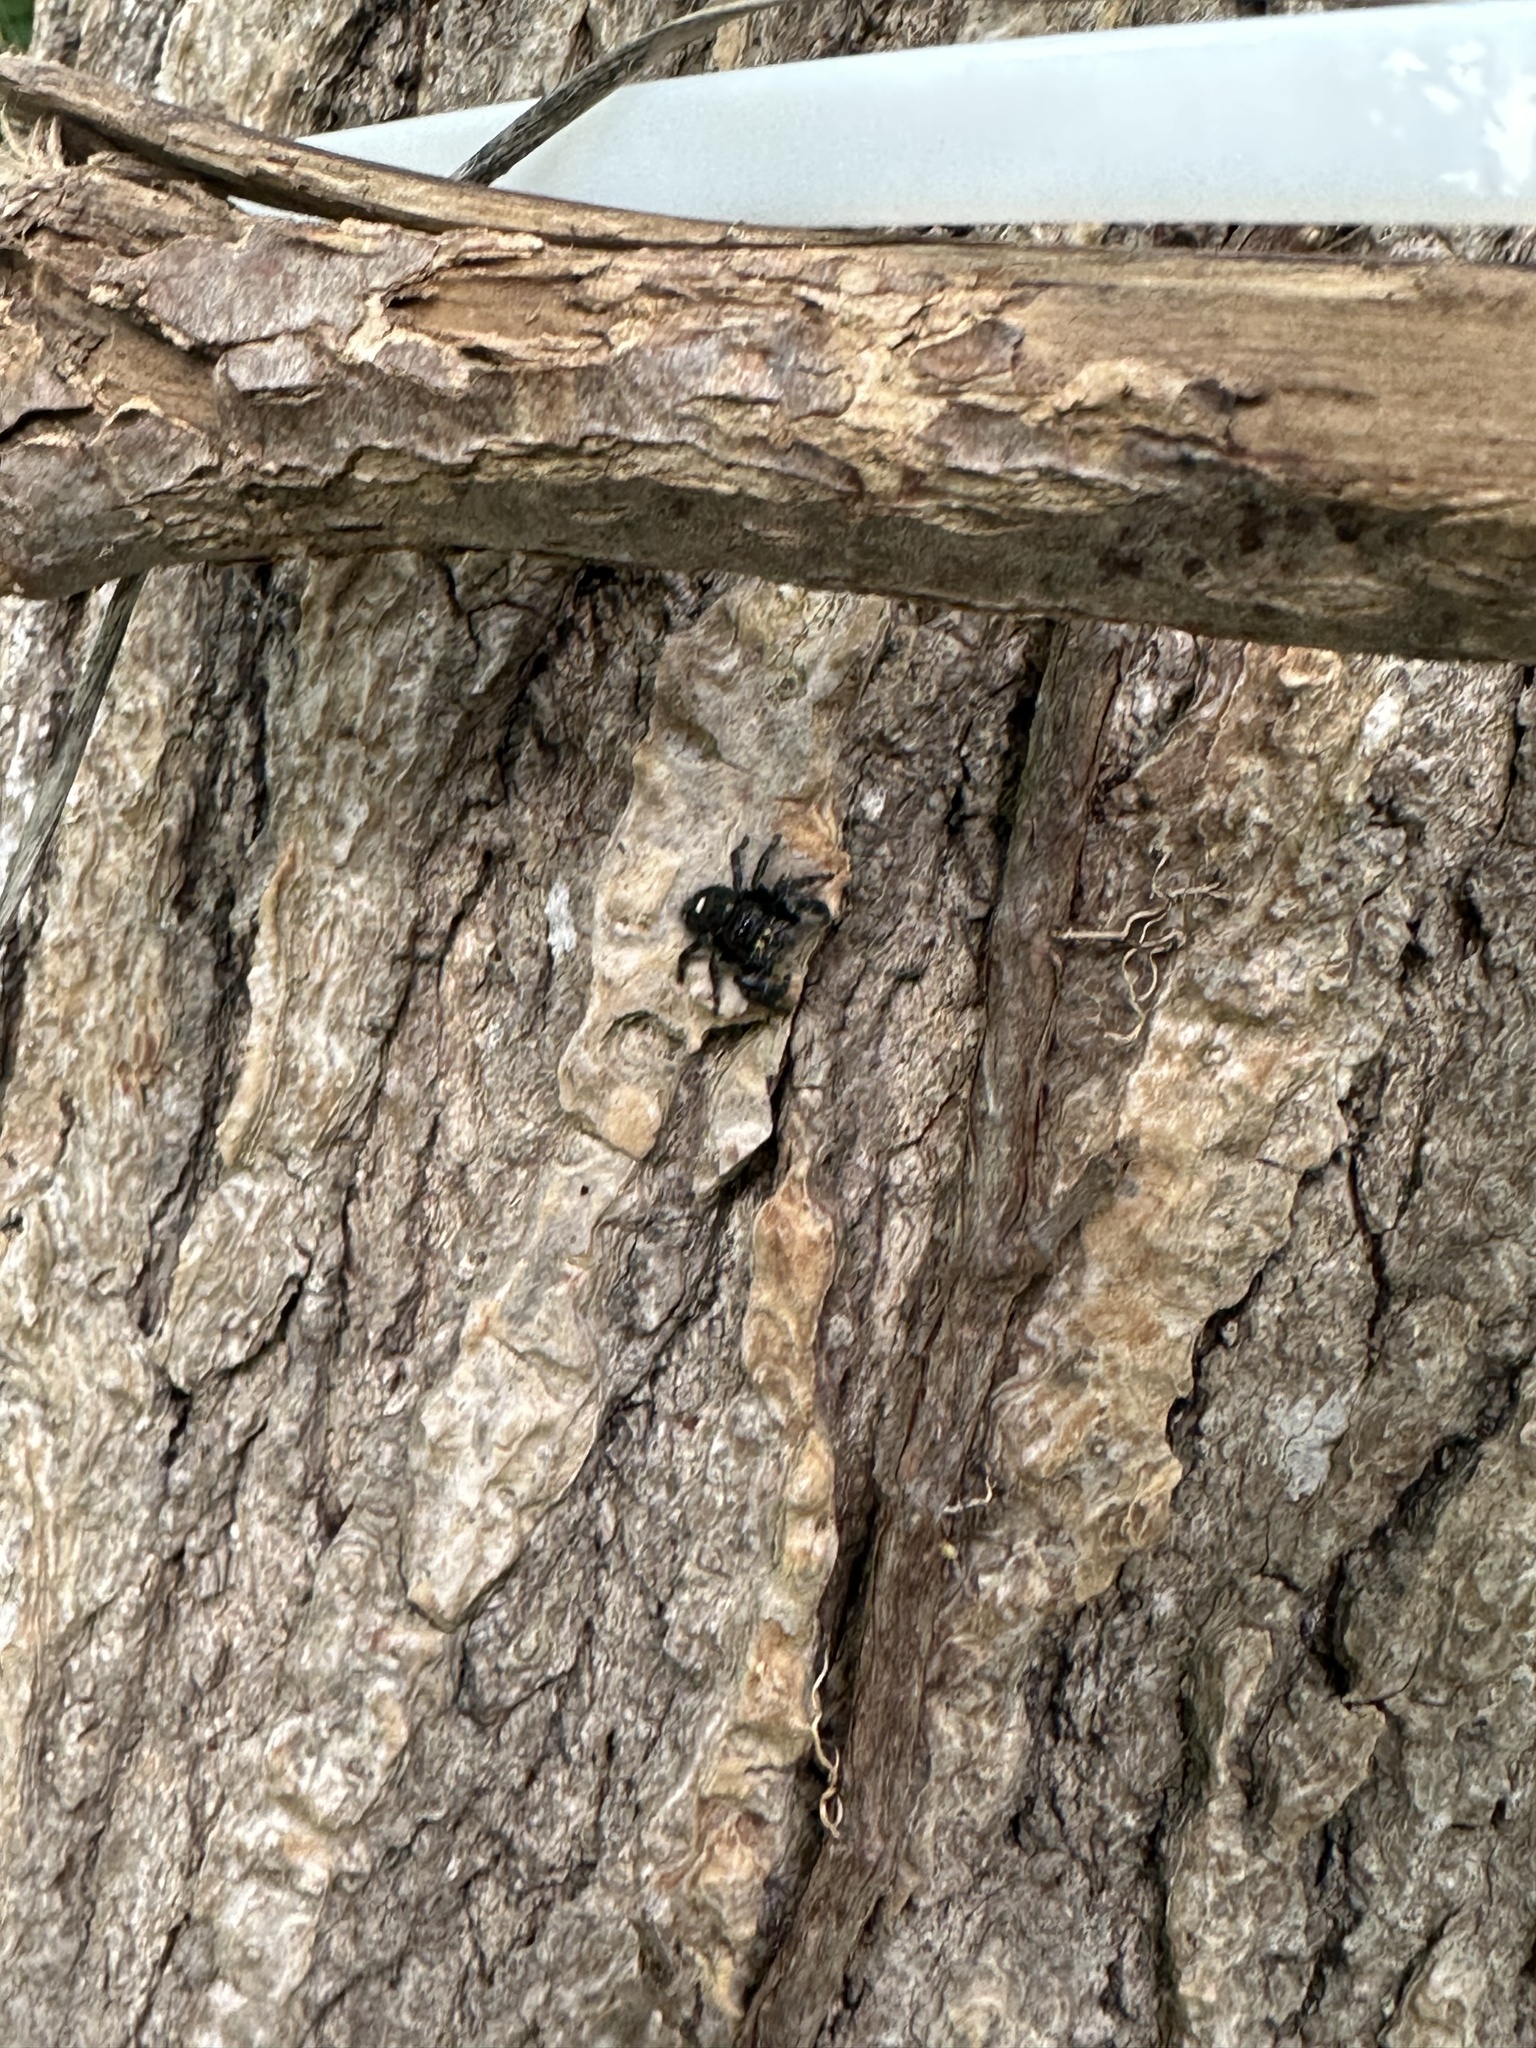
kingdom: Animalia
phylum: Arthropoda
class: Arachnida
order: Araneae
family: Salticidae
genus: Phidippus
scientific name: Phidippus audax
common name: Bold jumper
